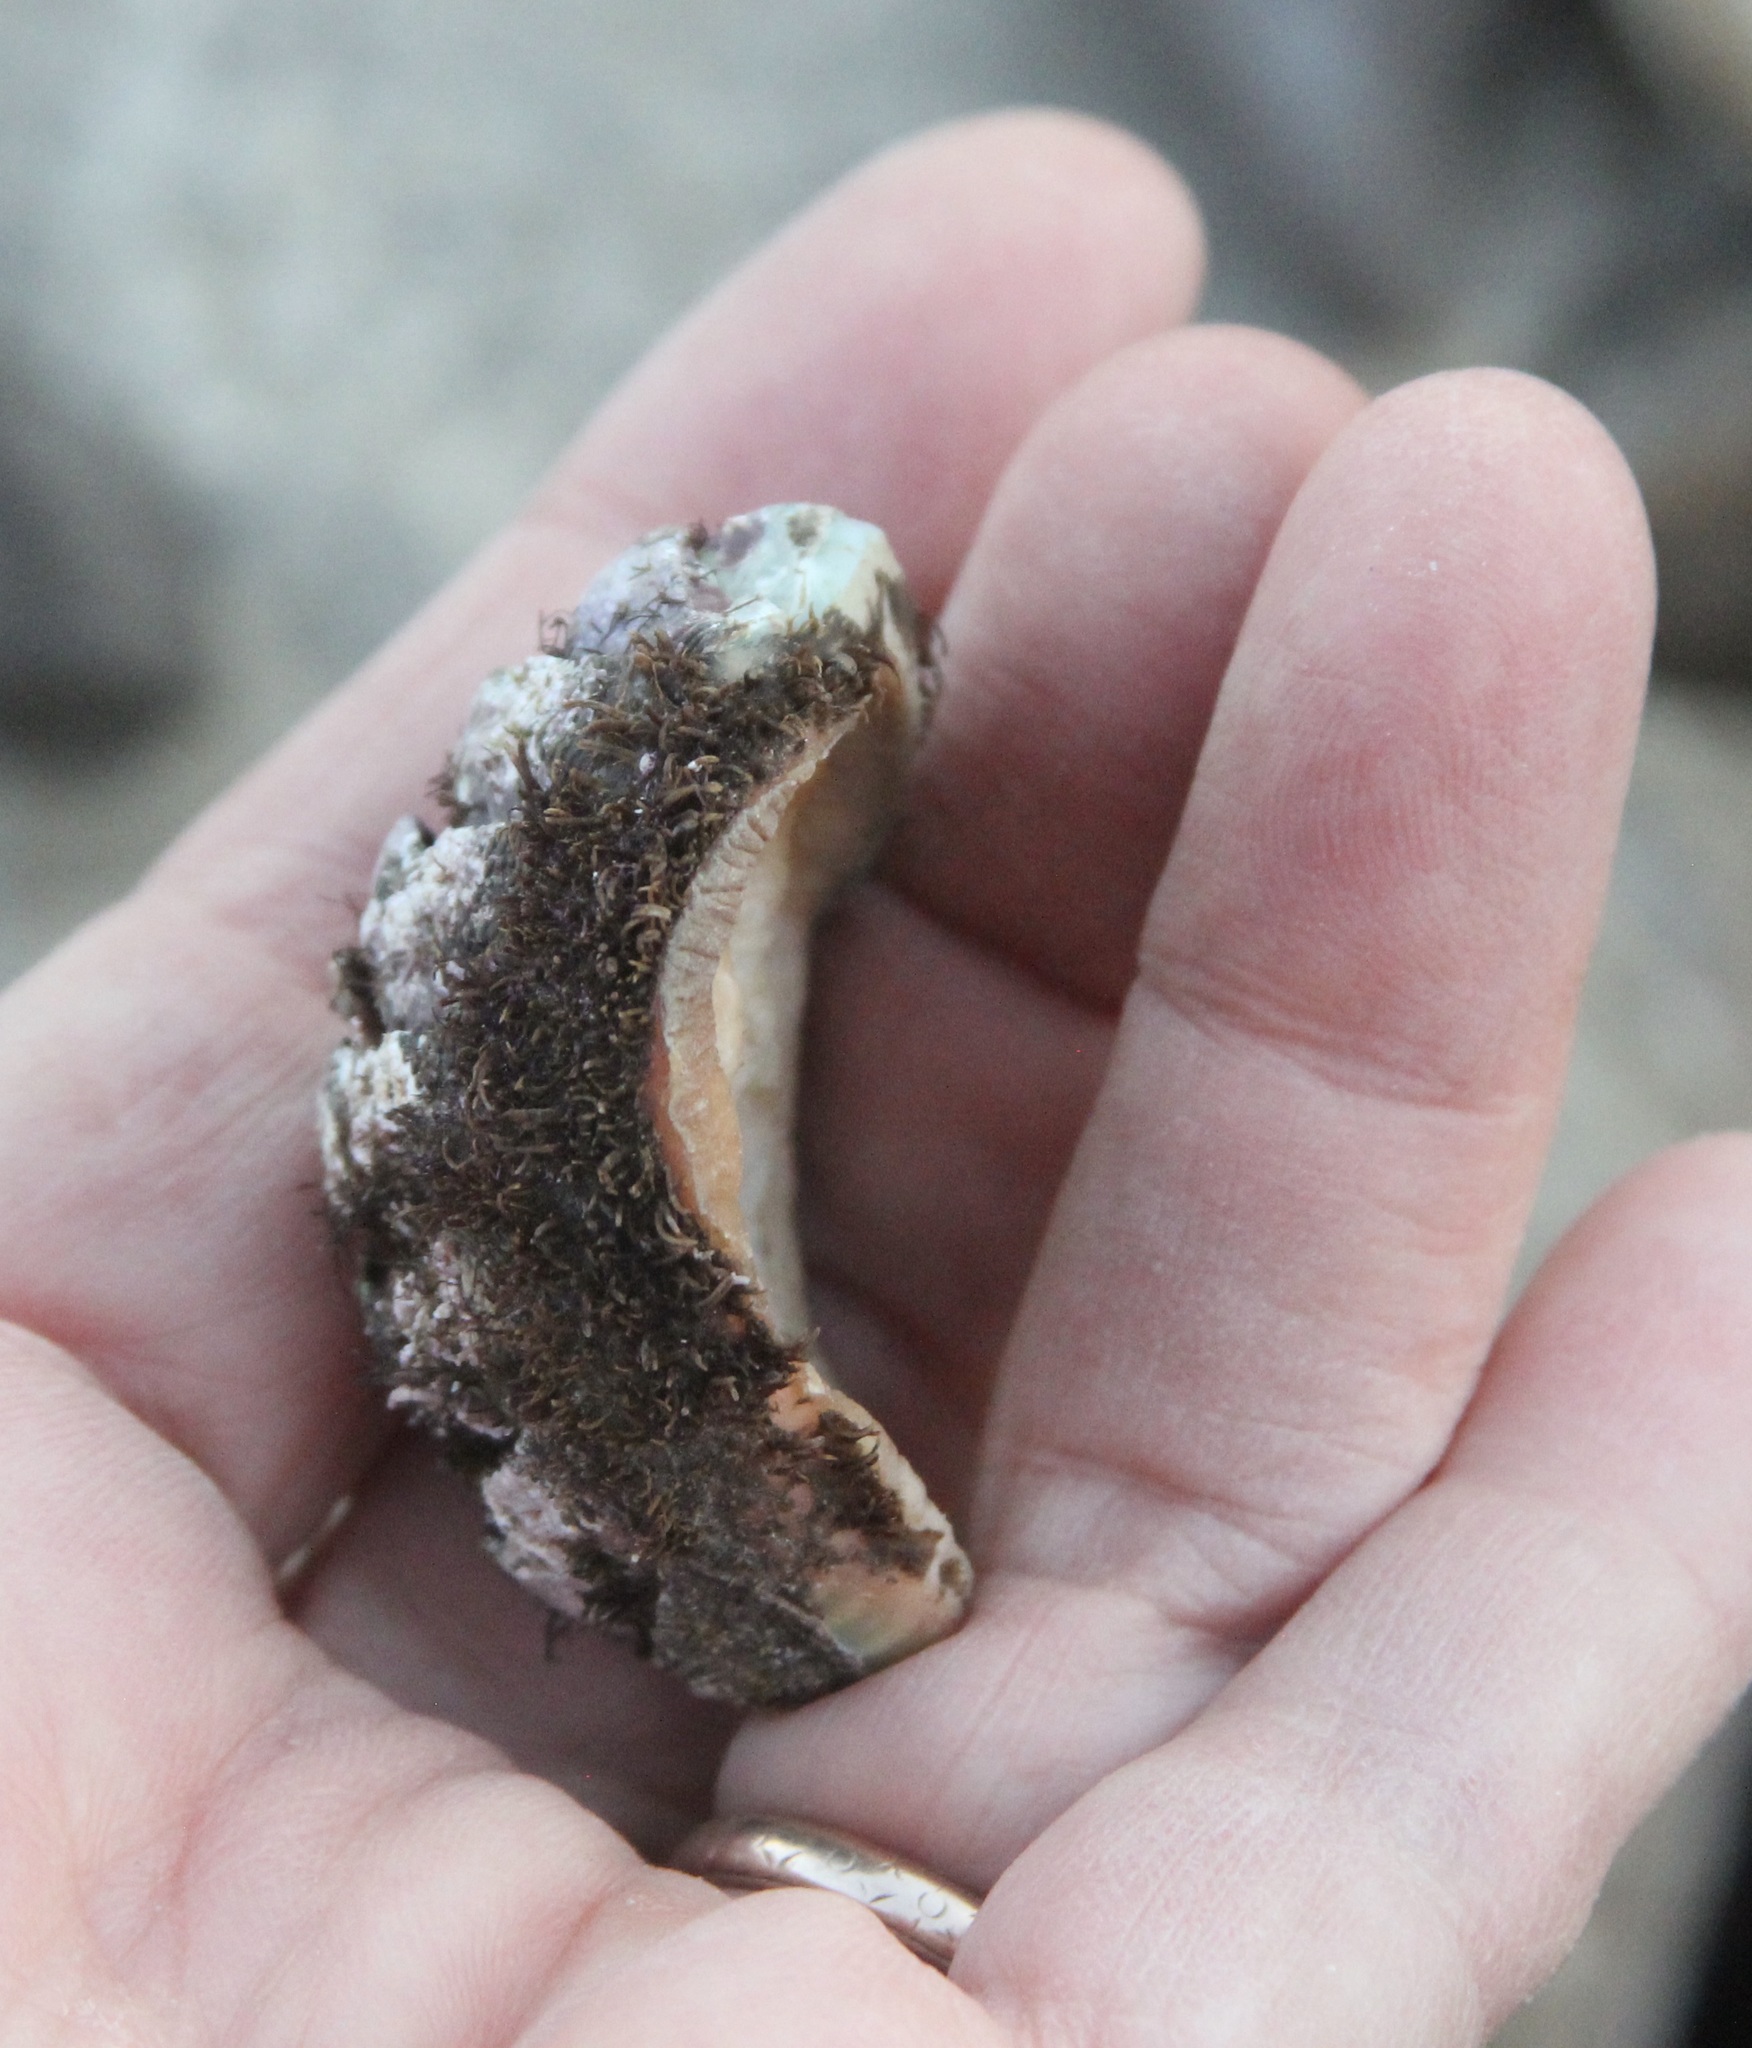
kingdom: Animalia
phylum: Mollusca
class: Polyplacophora
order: Chitonida
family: Mopaliidae
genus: Mopalia
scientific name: Mopalia muscosa
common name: Mossy chiton
